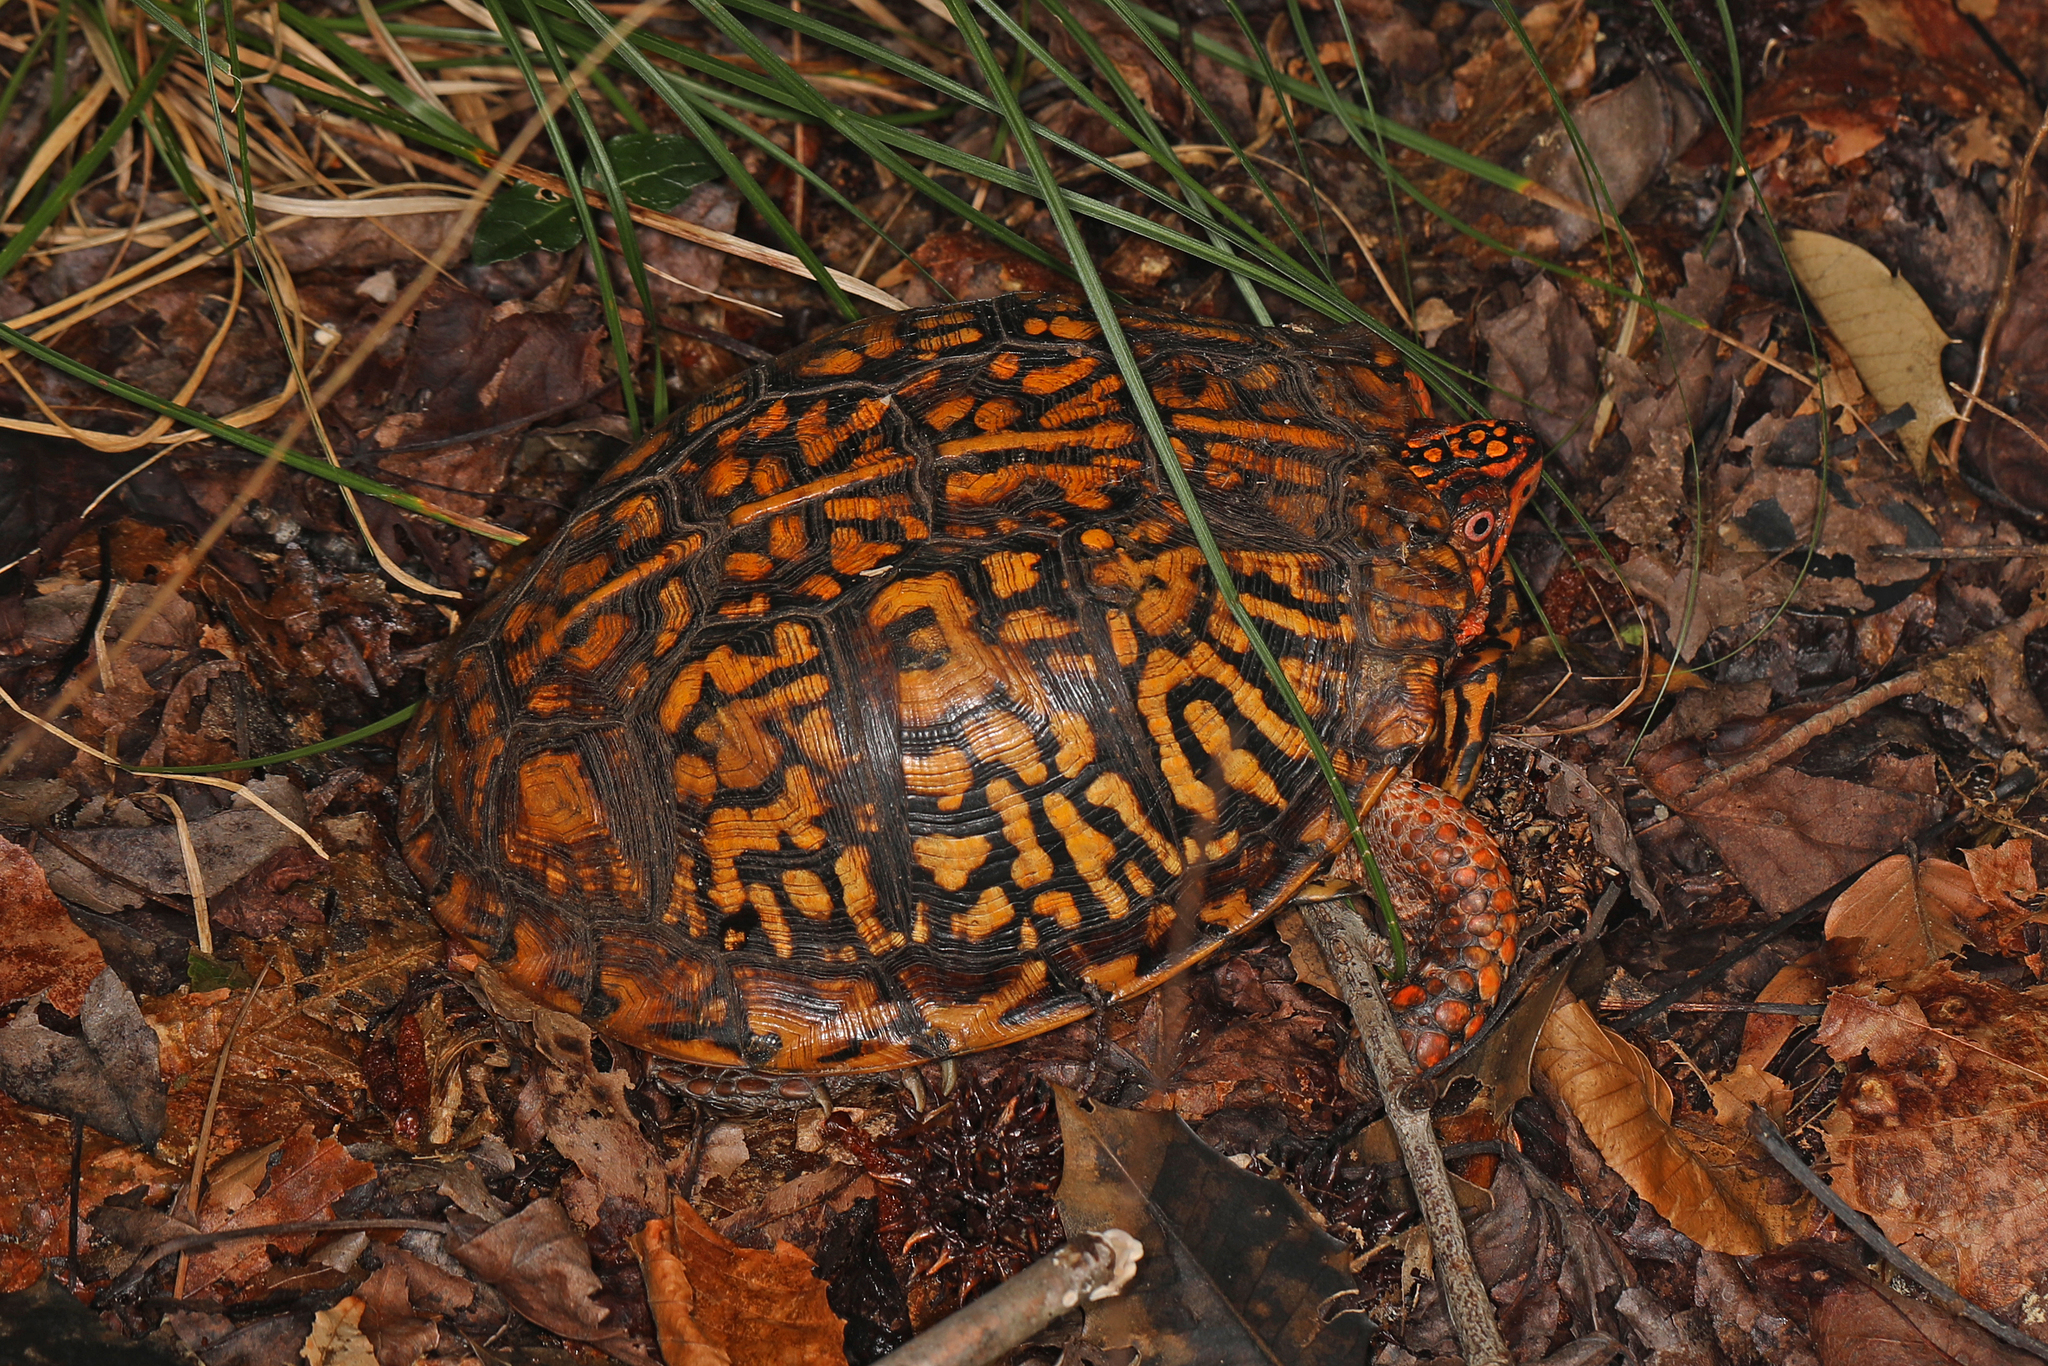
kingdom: Animalia
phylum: Chordata
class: Testudines
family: Emydidae
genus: Terrapene
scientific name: Terrapene carolina
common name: Common box turtle
